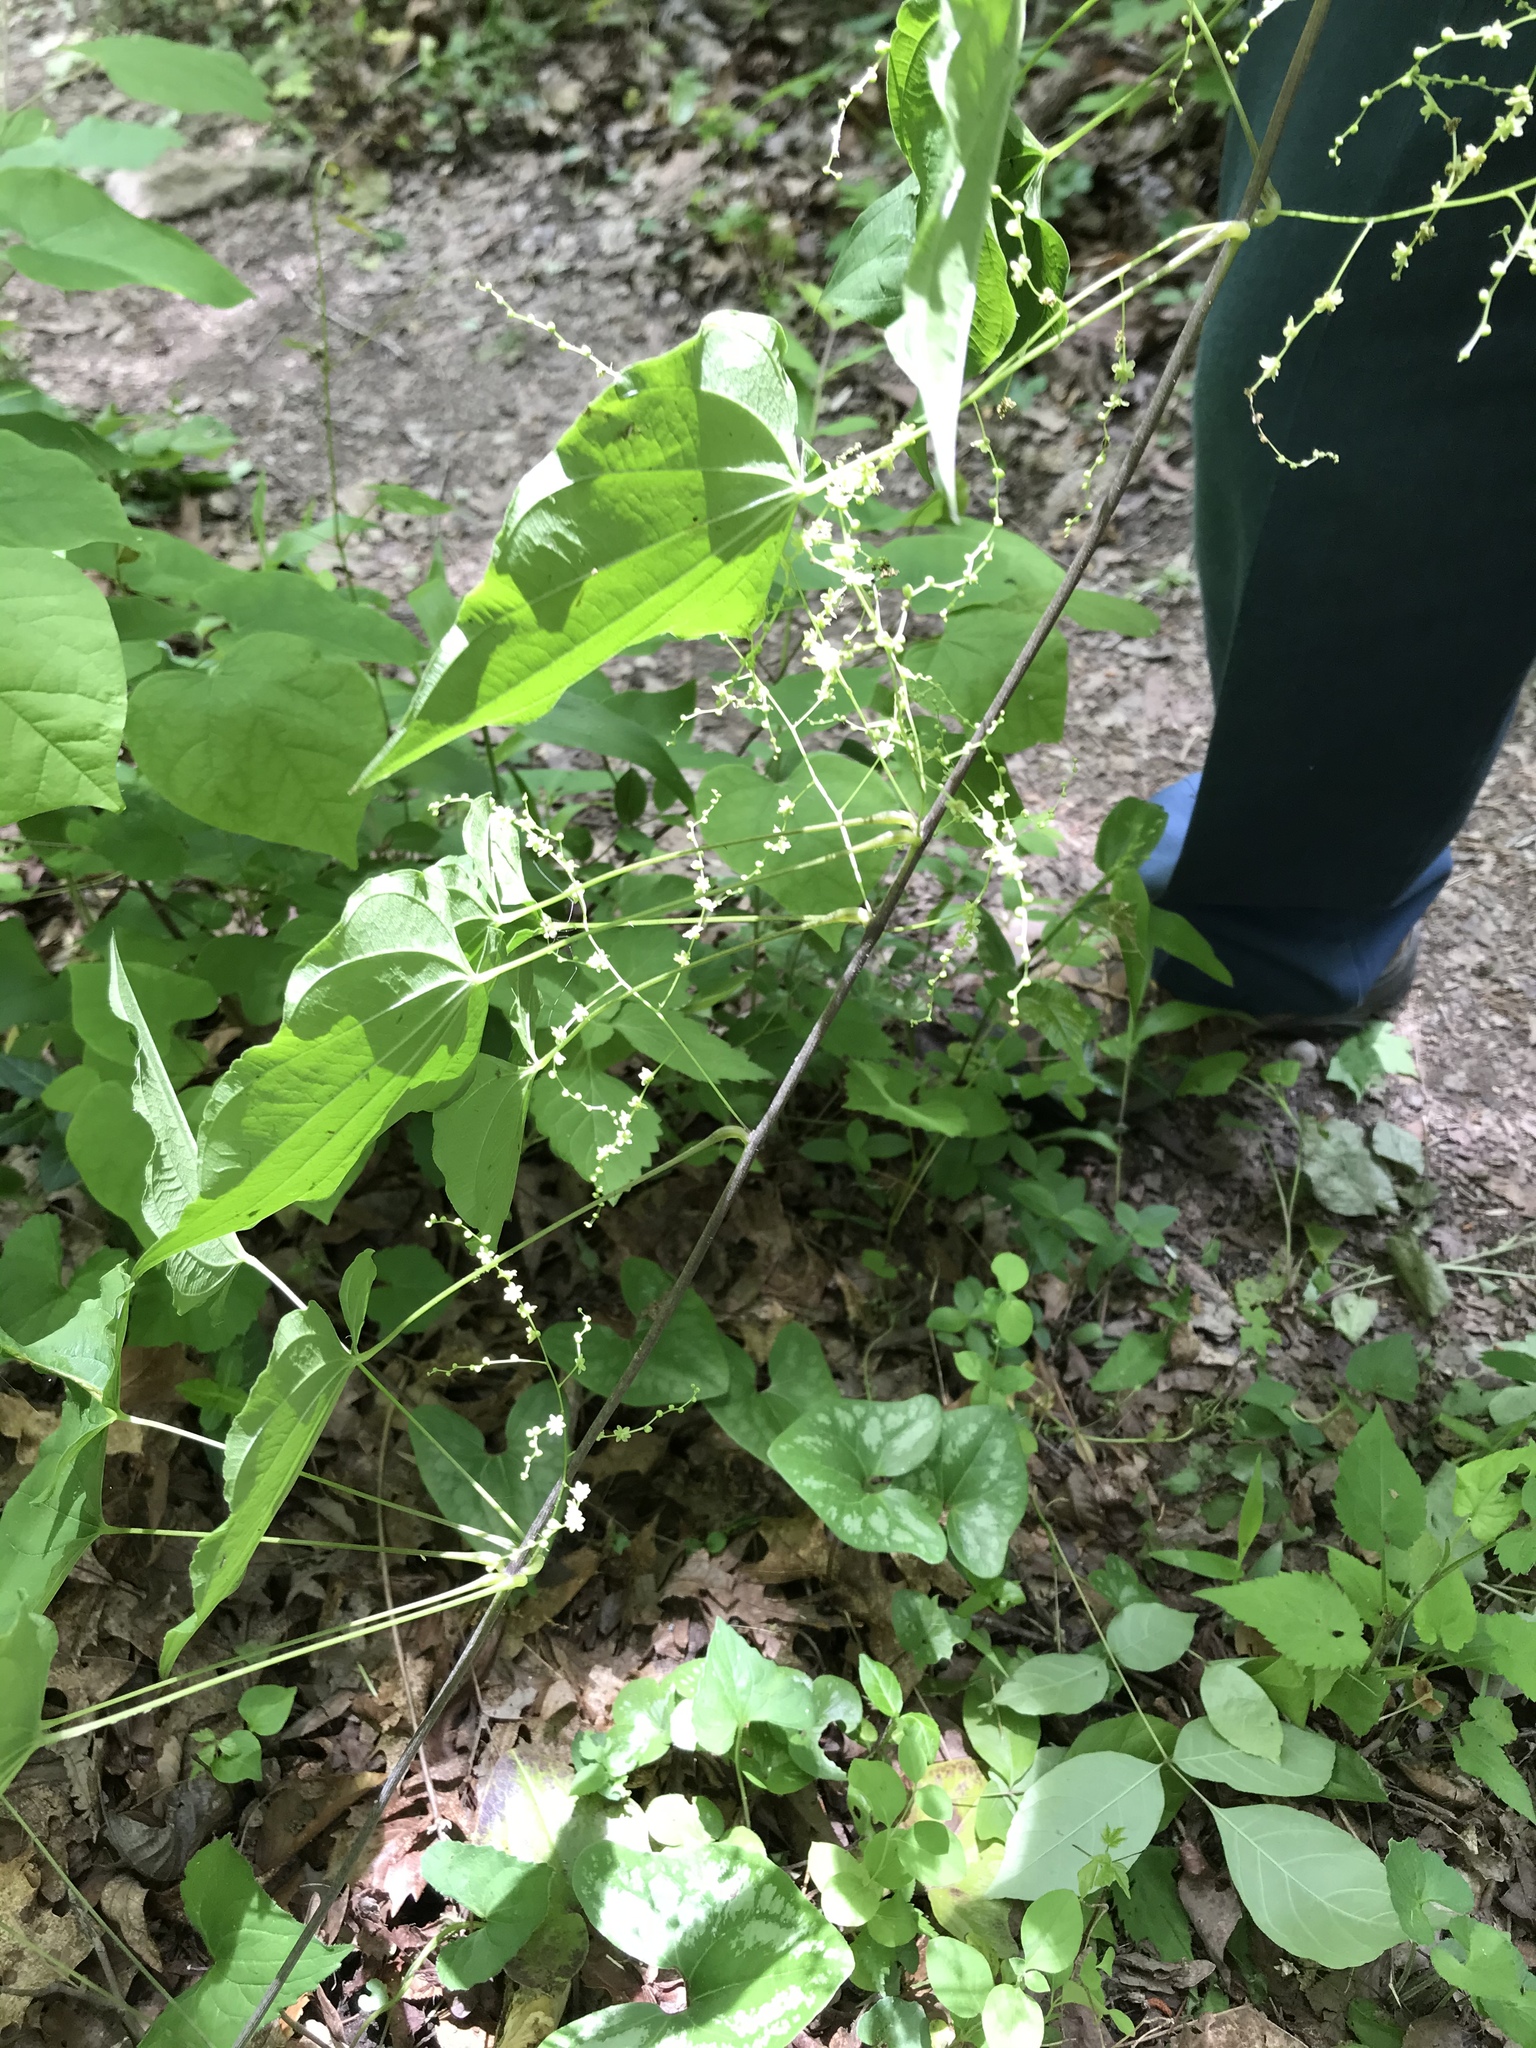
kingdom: Plantae
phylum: Tracheophyta
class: Liliopsida
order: Dioscoreales
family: Dioscoreaceae
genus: Dioscorea
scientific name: Dioscorea villosa
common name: Wild yam
